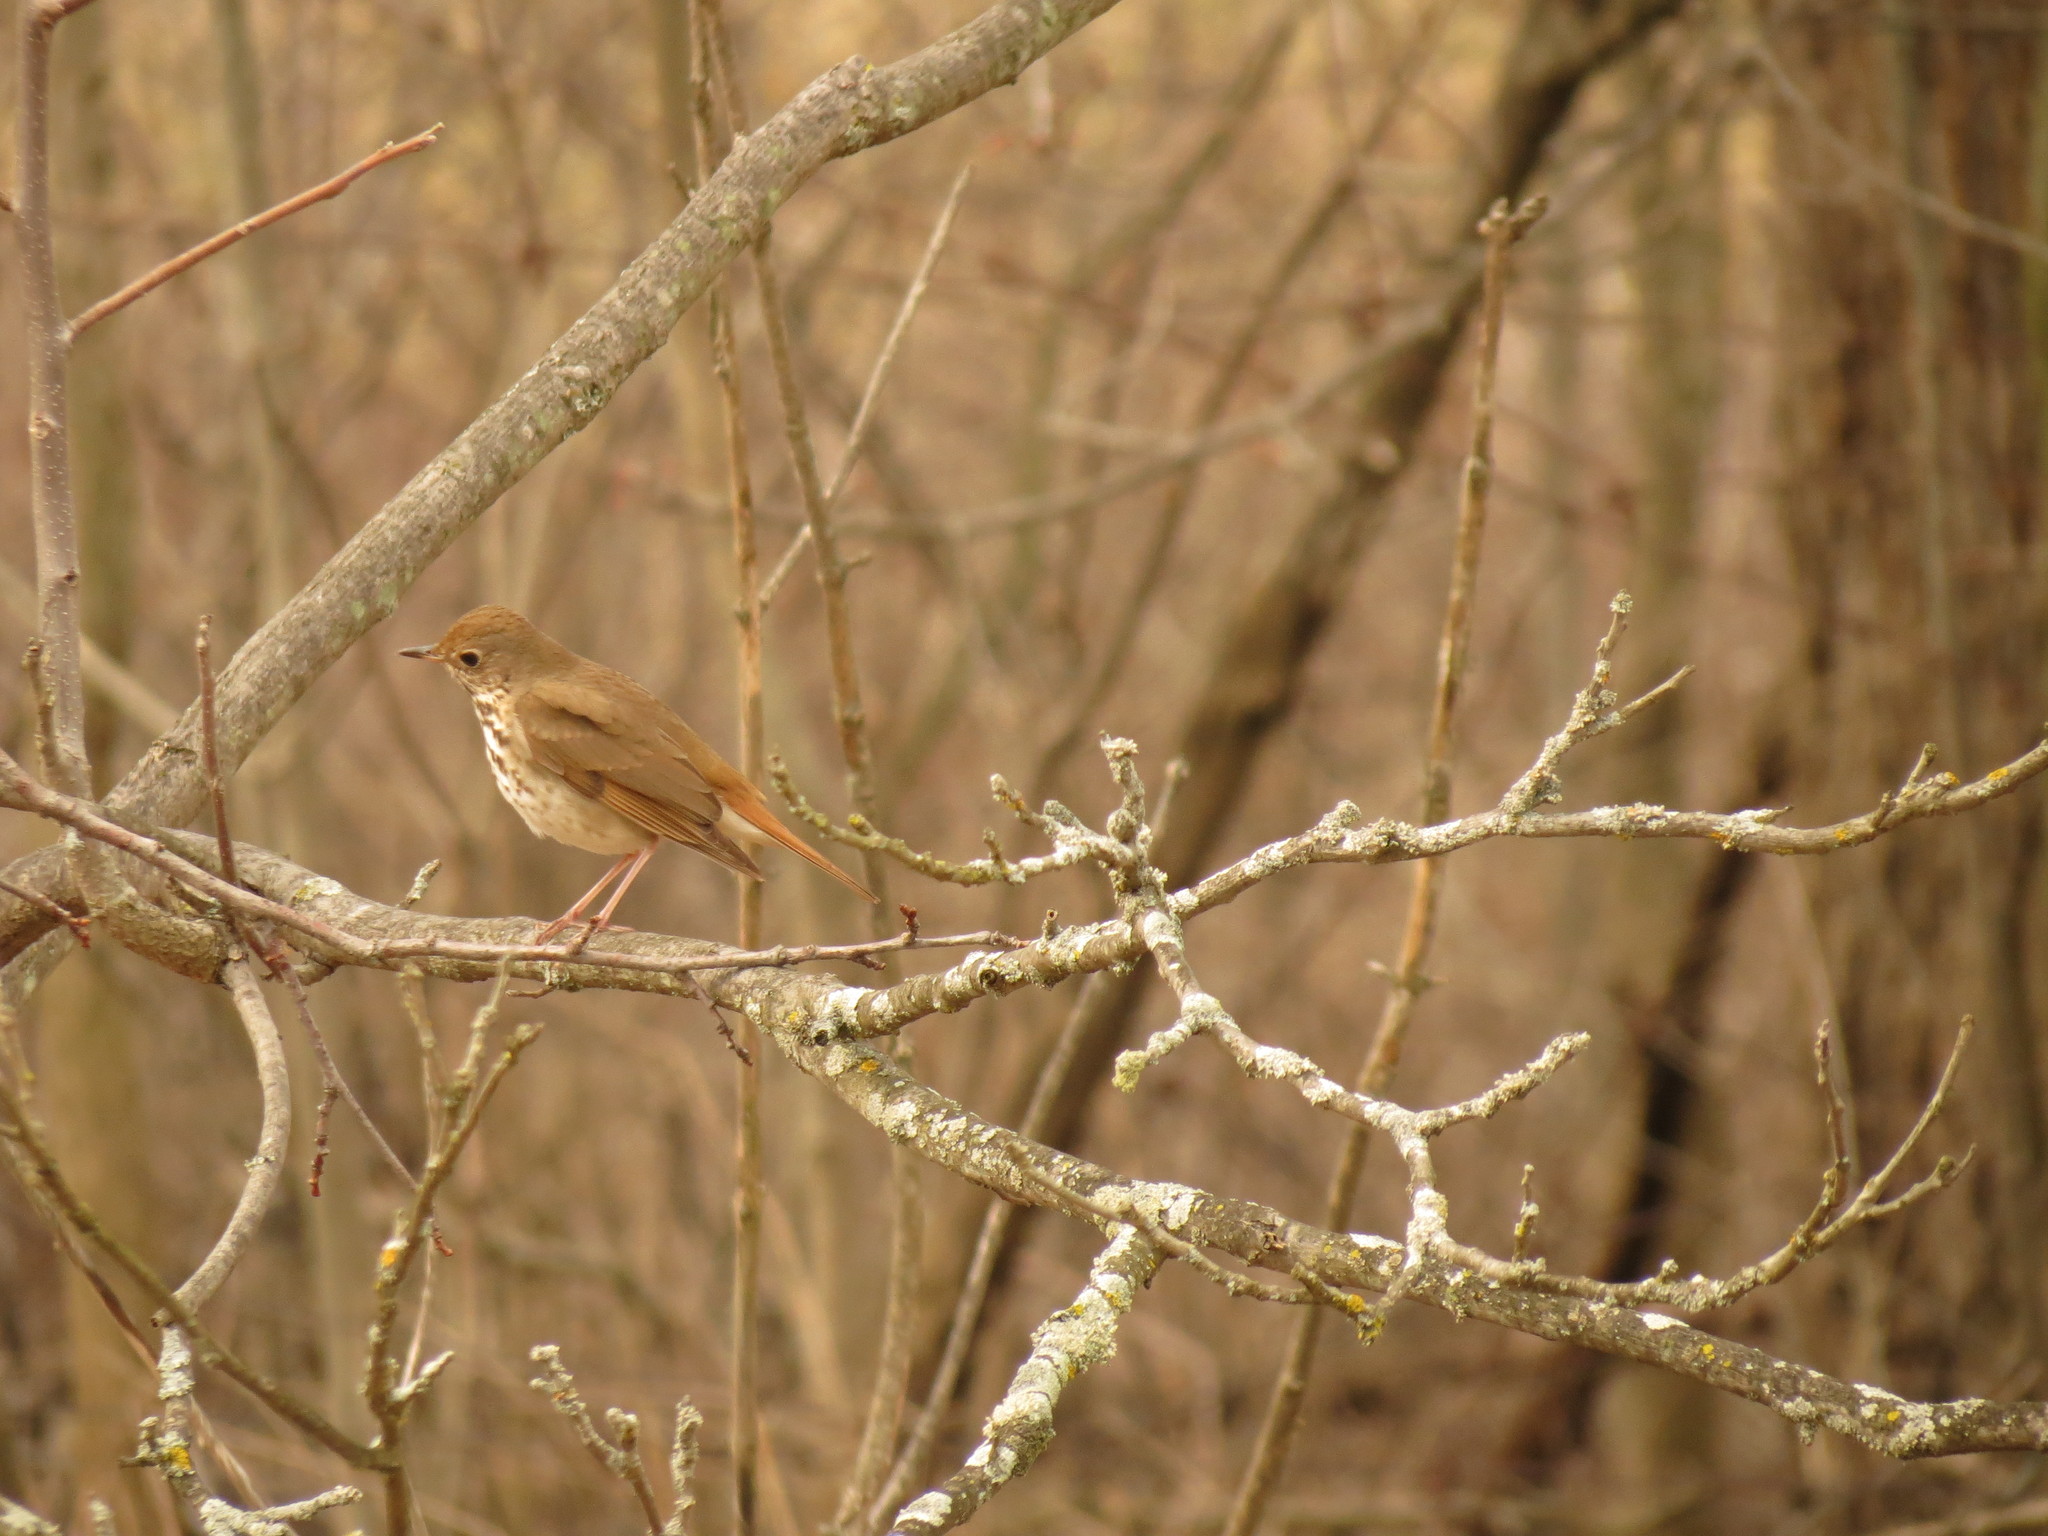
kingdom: Animalia
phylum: Chordata
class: Aves
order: Passeriformes
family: Turdidae
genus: Catharus
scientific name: Catharus guttatus
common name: Hermit thrush
